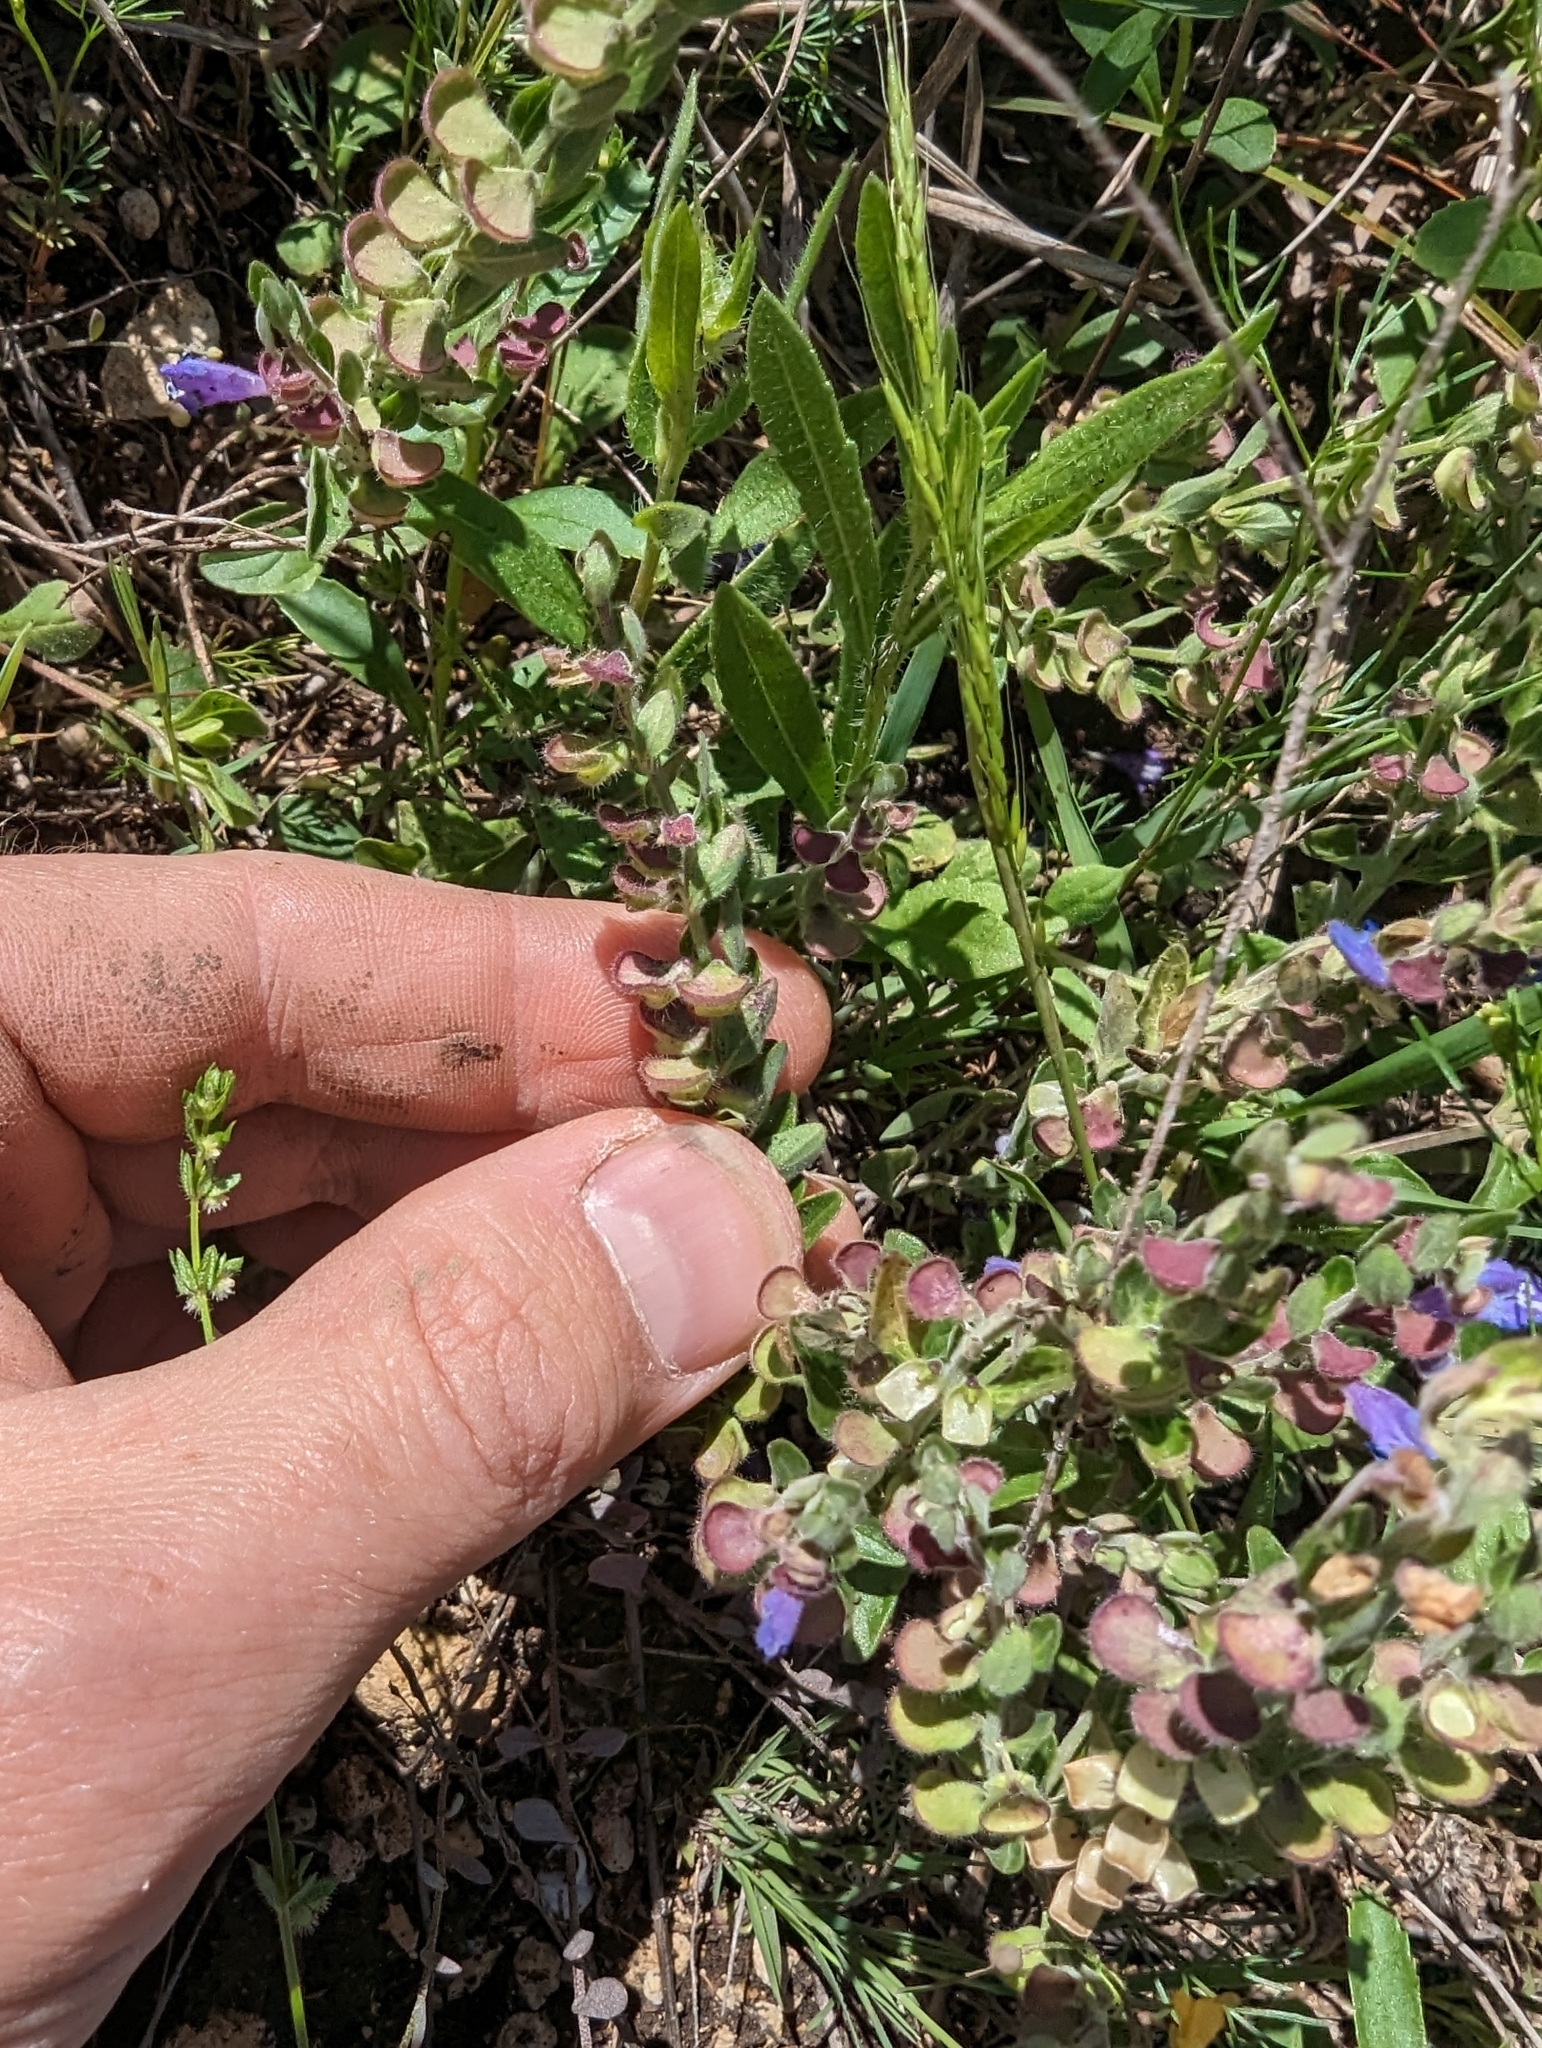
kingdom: Plantae
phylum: Tracheophyta
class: Magnoliopsida
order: Lamiales
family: Lamiaceae
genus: Scutellaria
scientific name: Scutellaria drummondii
